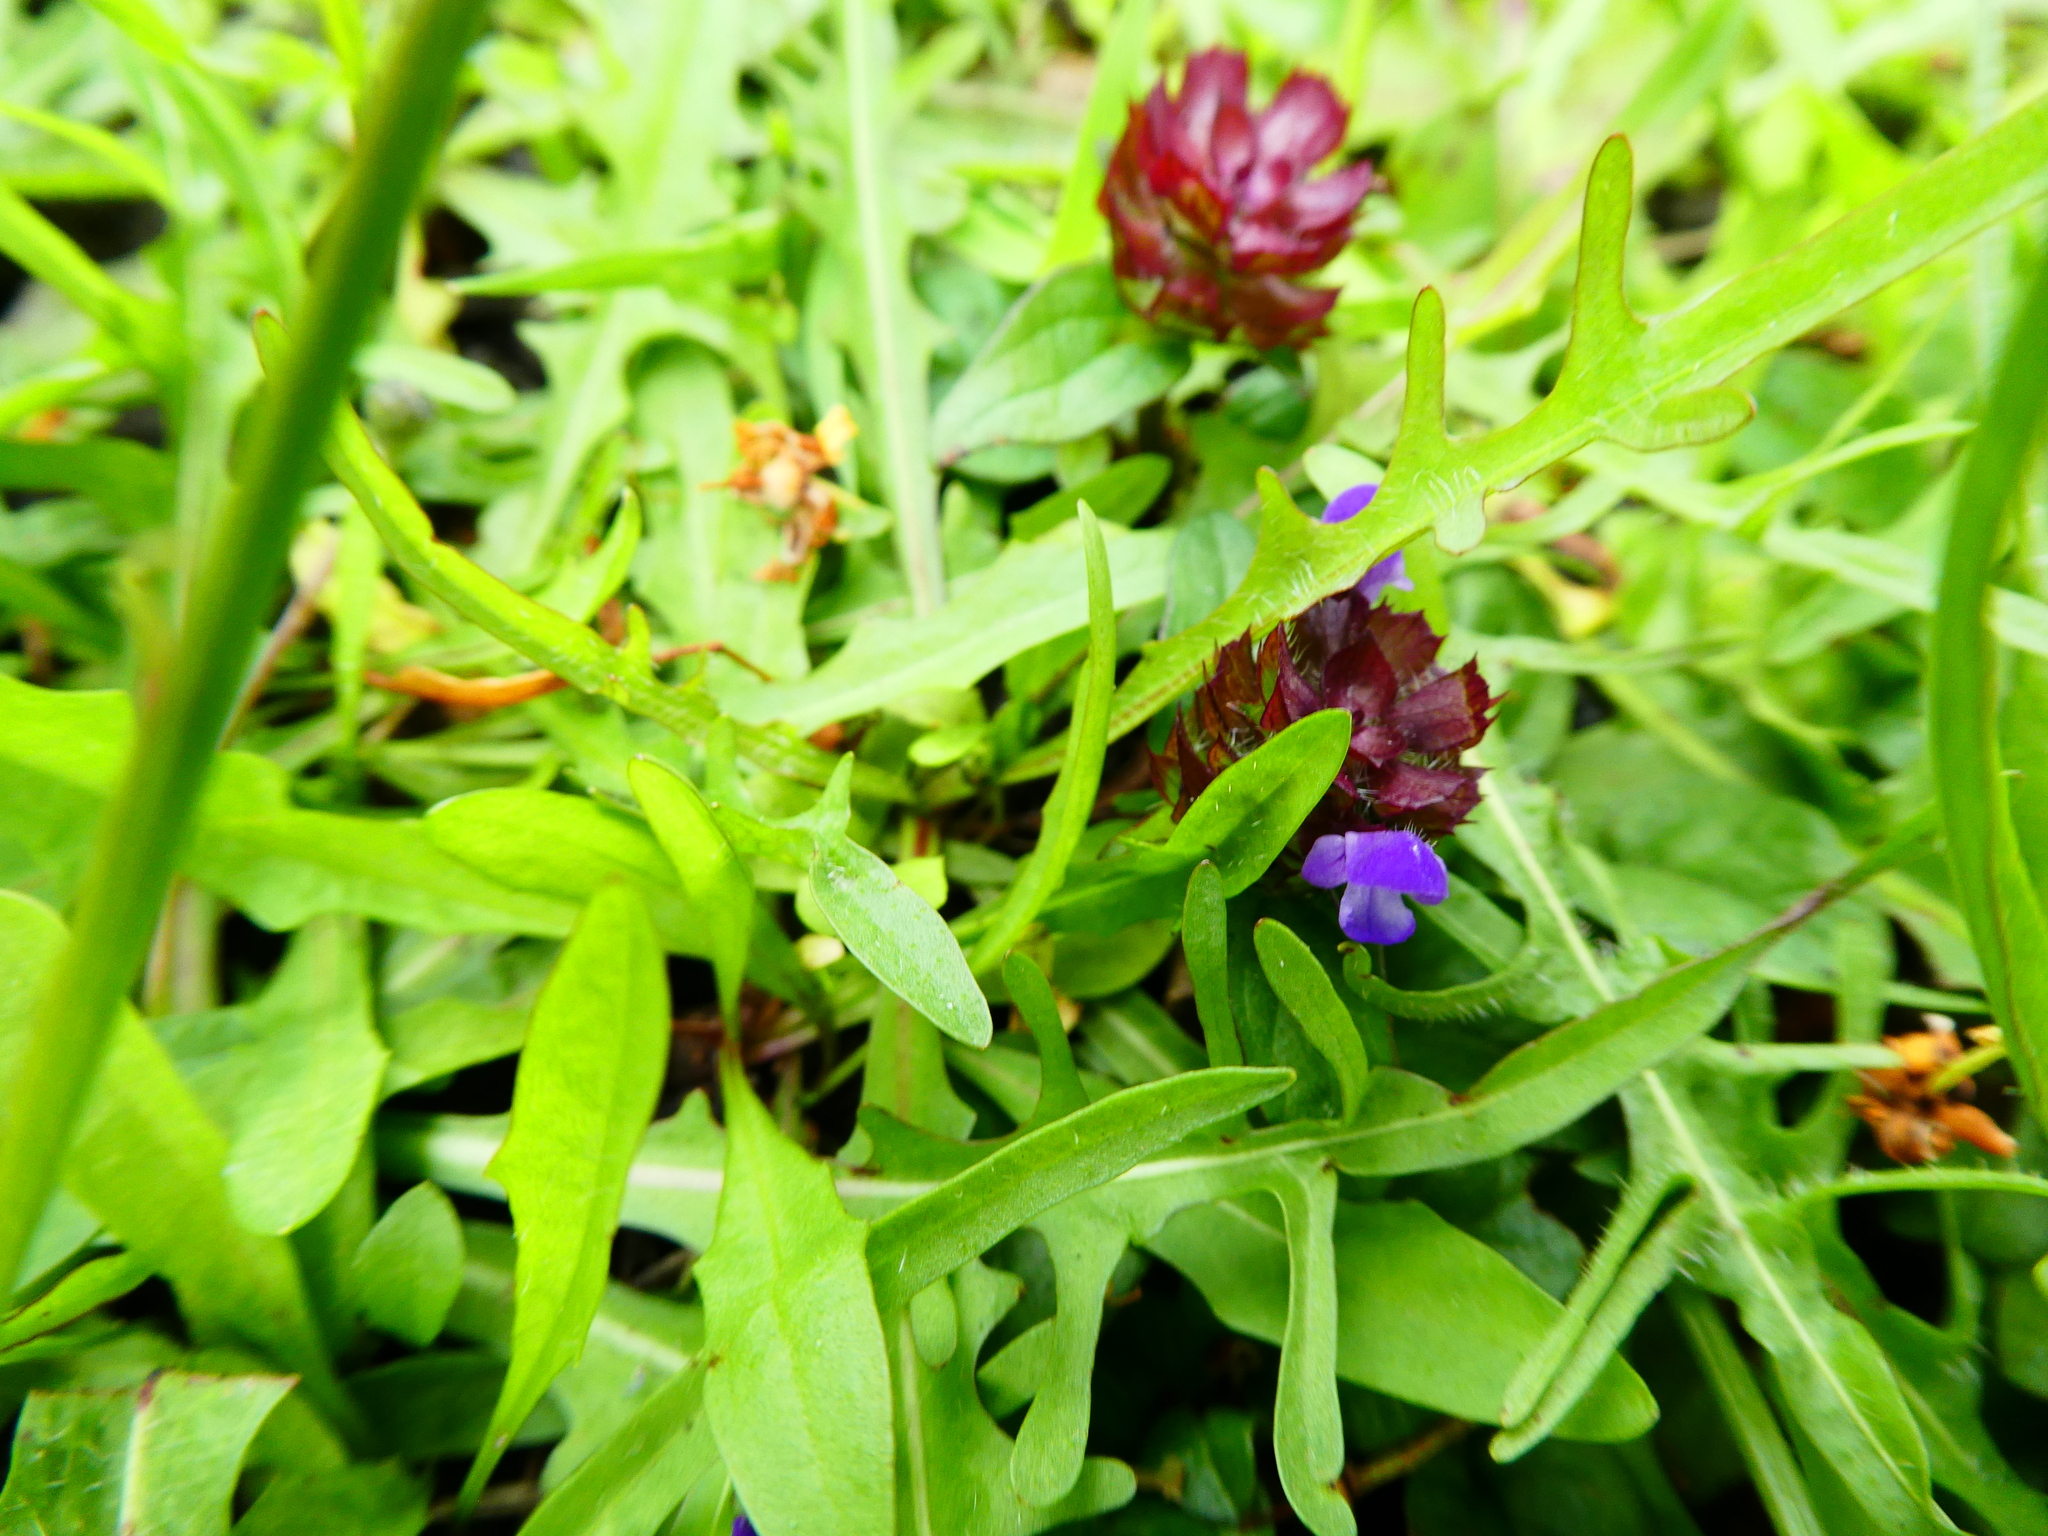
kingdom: Plantae
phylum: Tracheophyta
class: Magnoliopsida
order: Lamiales
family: Lamiaceae
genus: Prunella
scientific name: Prunella vulgaris
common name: Heal-all
